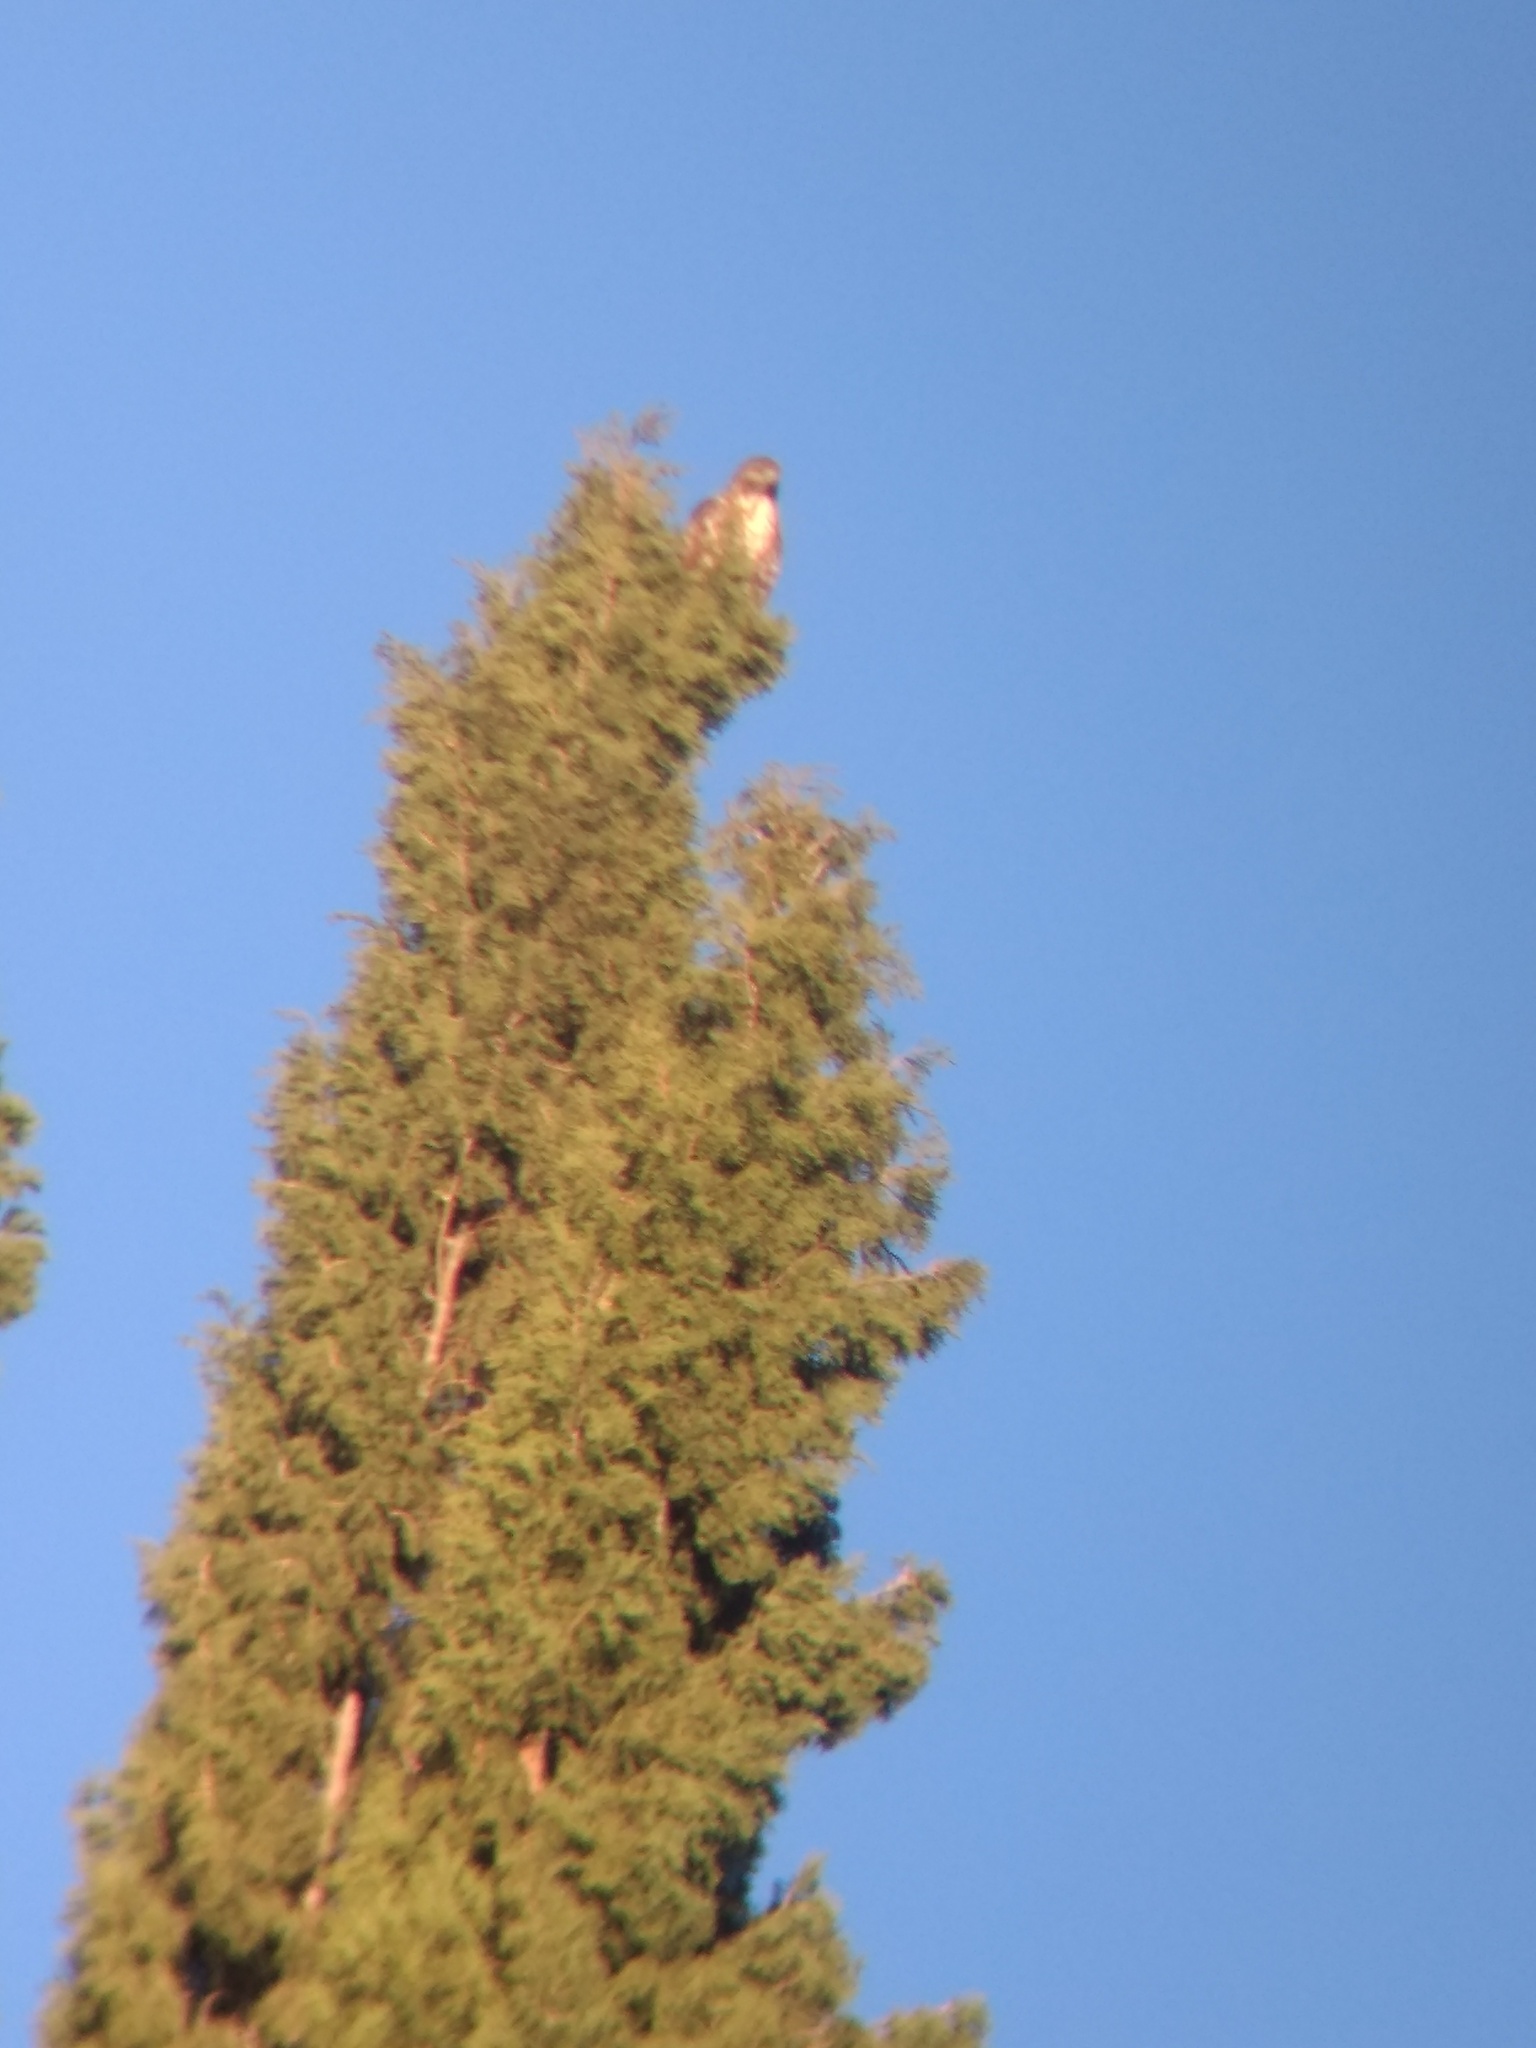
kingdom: Animalia
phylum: Chordata
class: Aves
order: Accipitriformes
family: Accipitridae
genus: Buteo
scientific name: Buteo jamaicensis
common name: Red-tailed hawk
